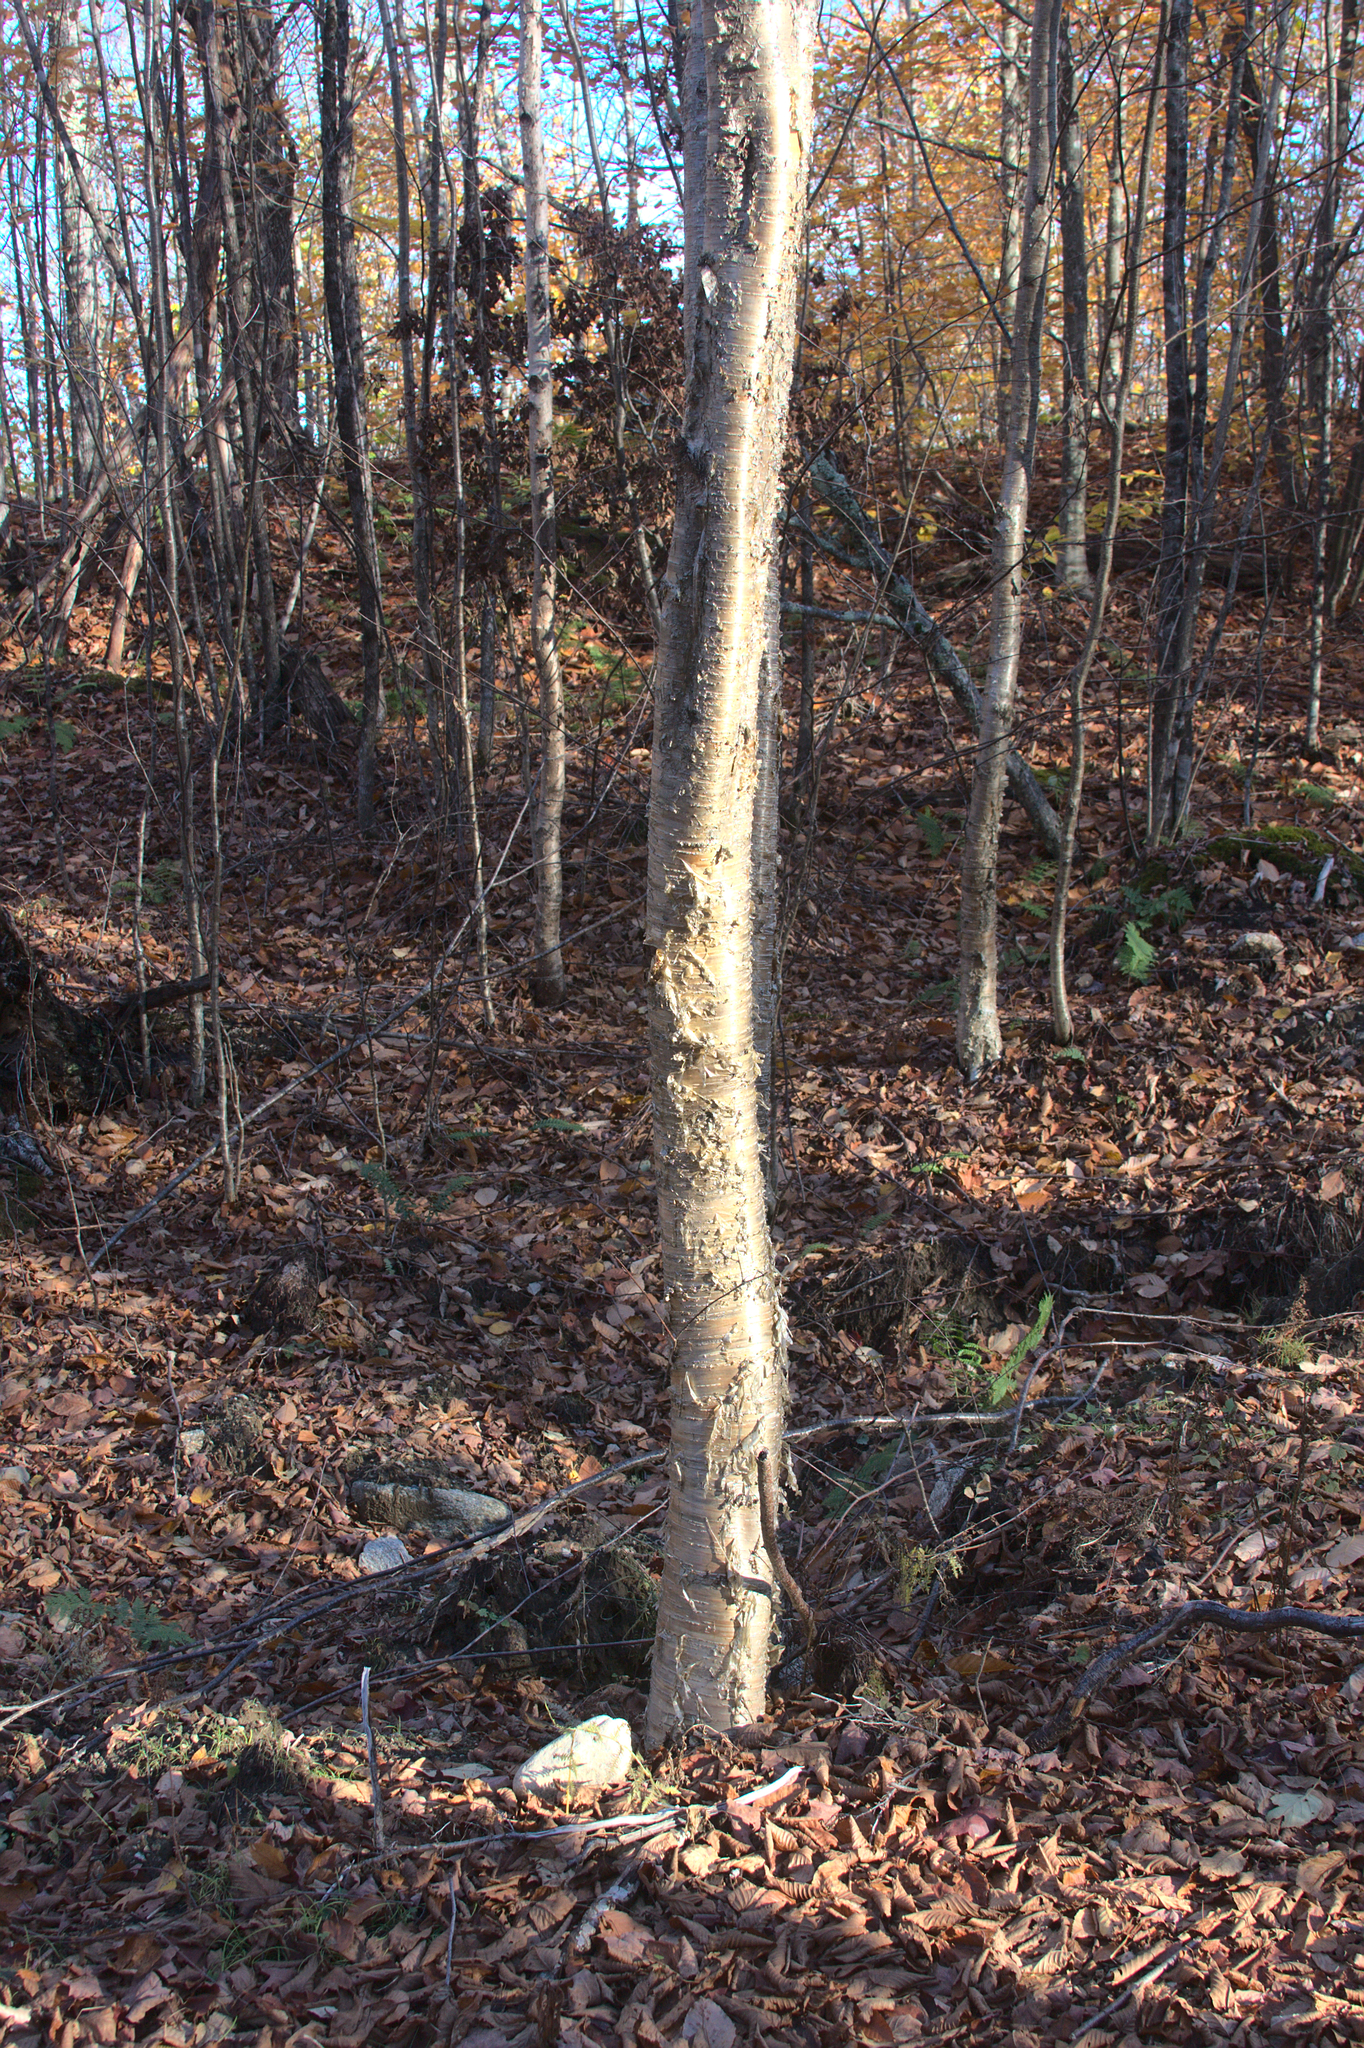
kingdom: Plantae
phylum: Tracheophyta
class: Magnoliopsida
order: Fagales
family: Betulaceae
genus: Betula
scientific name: Betula alleghaniensis
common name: Yellow birch
